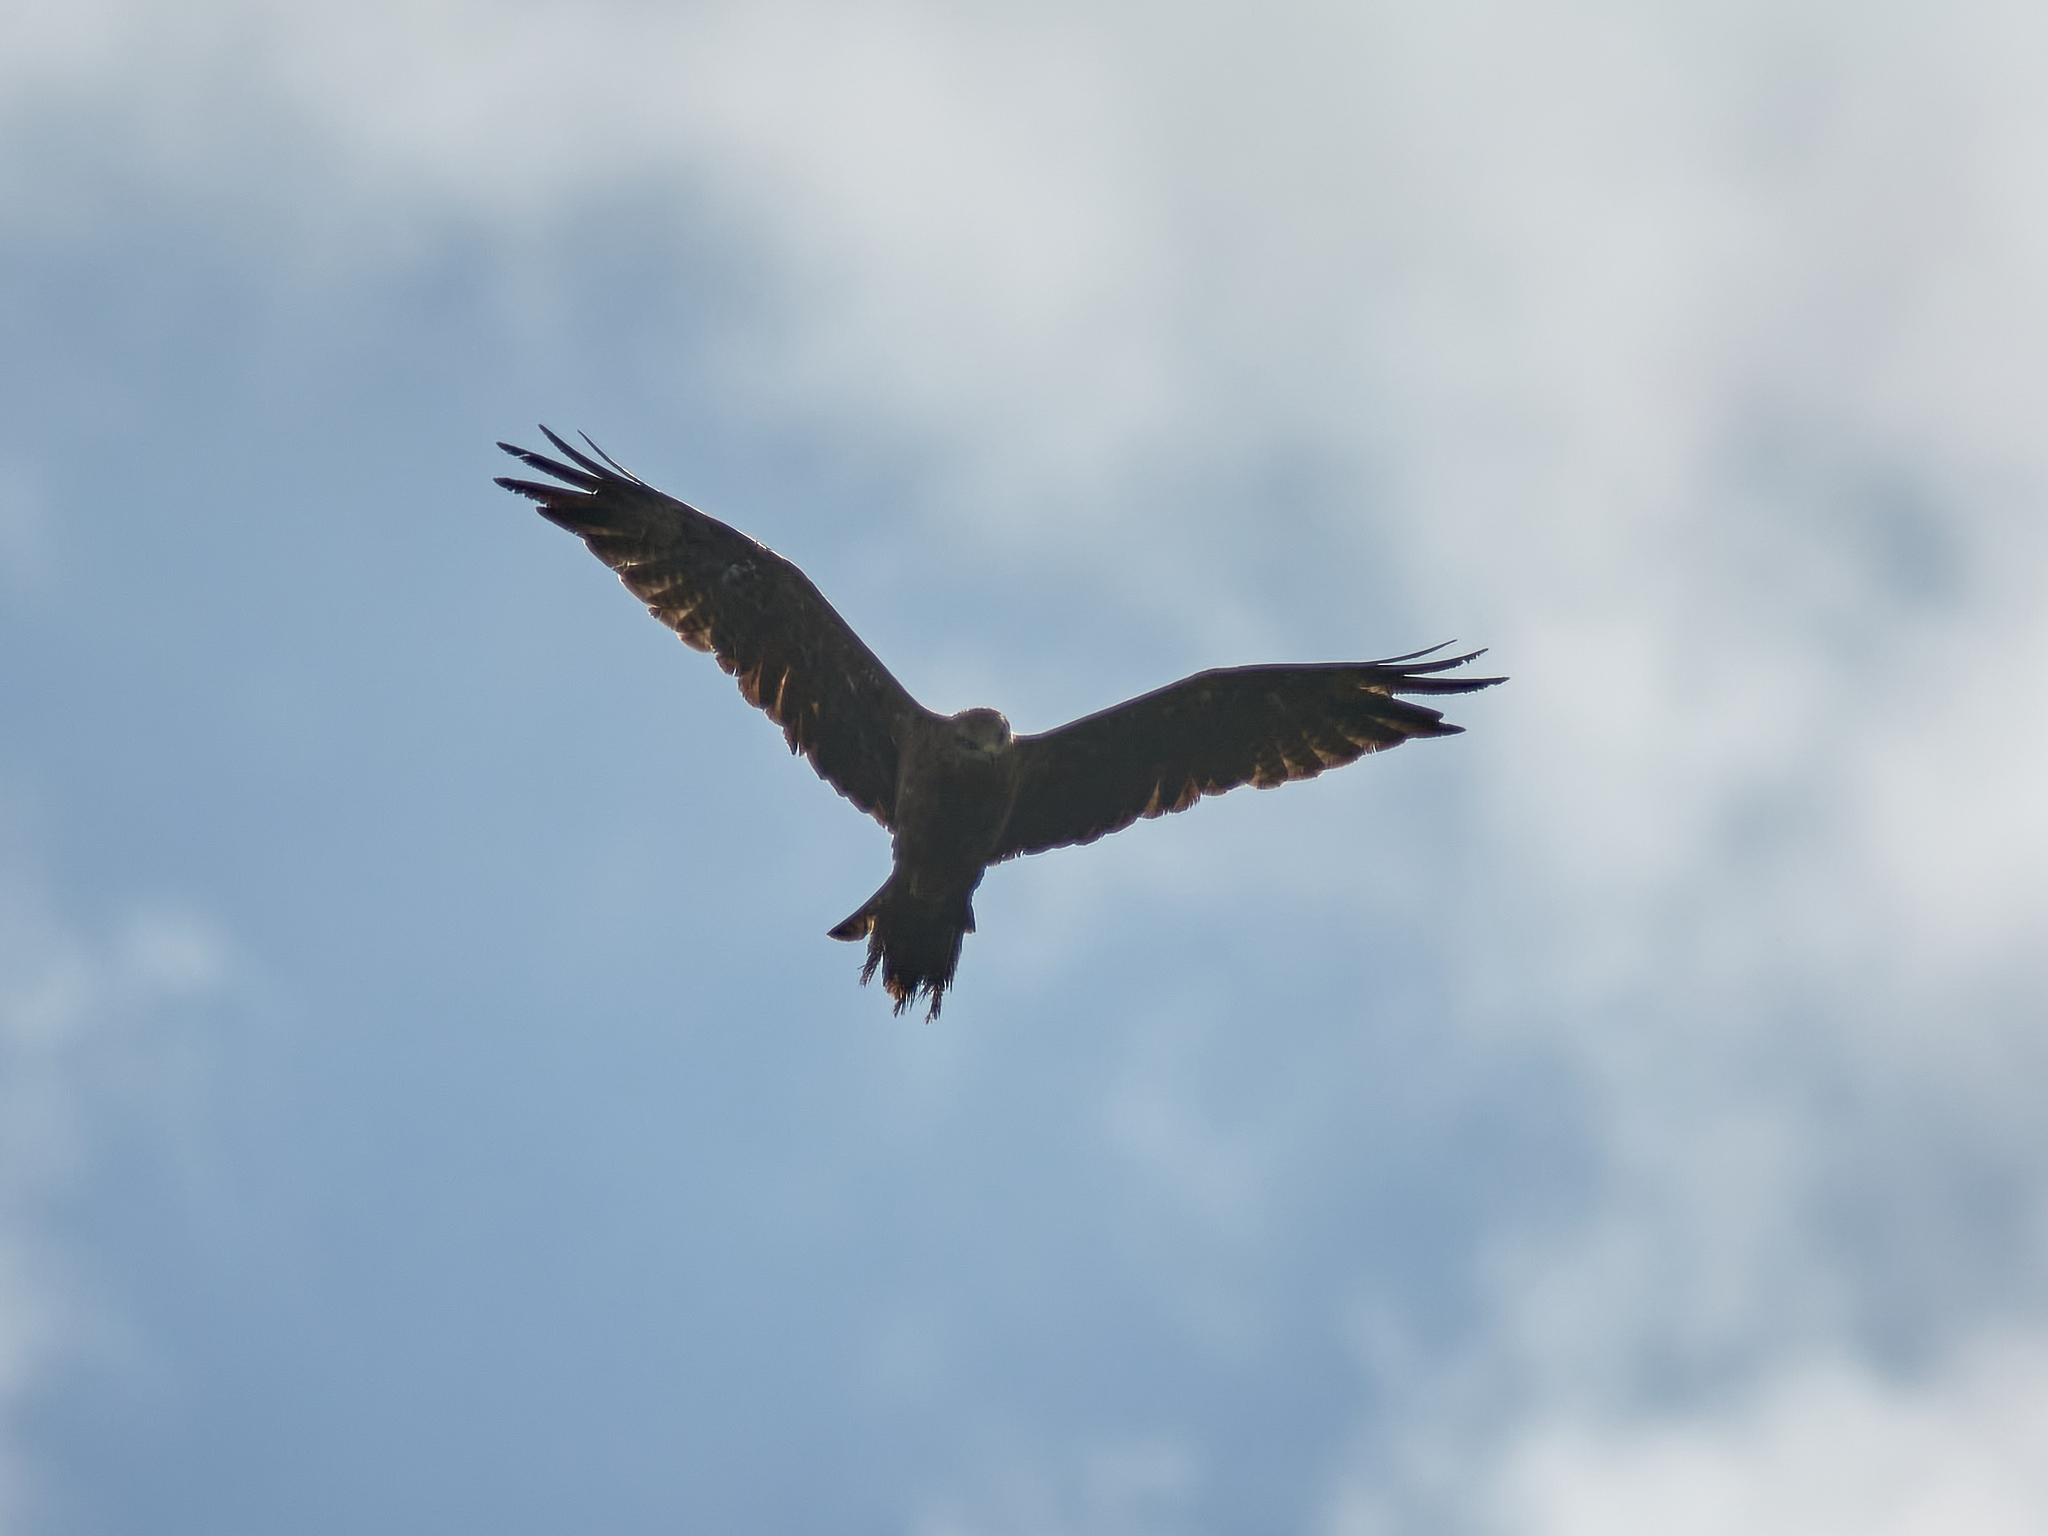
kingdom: Animalia
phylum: Chordata
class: Aves
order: Accipitriformes
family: Accipitridae
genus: Milvus
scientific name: Milvus migrans
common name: Black kite
